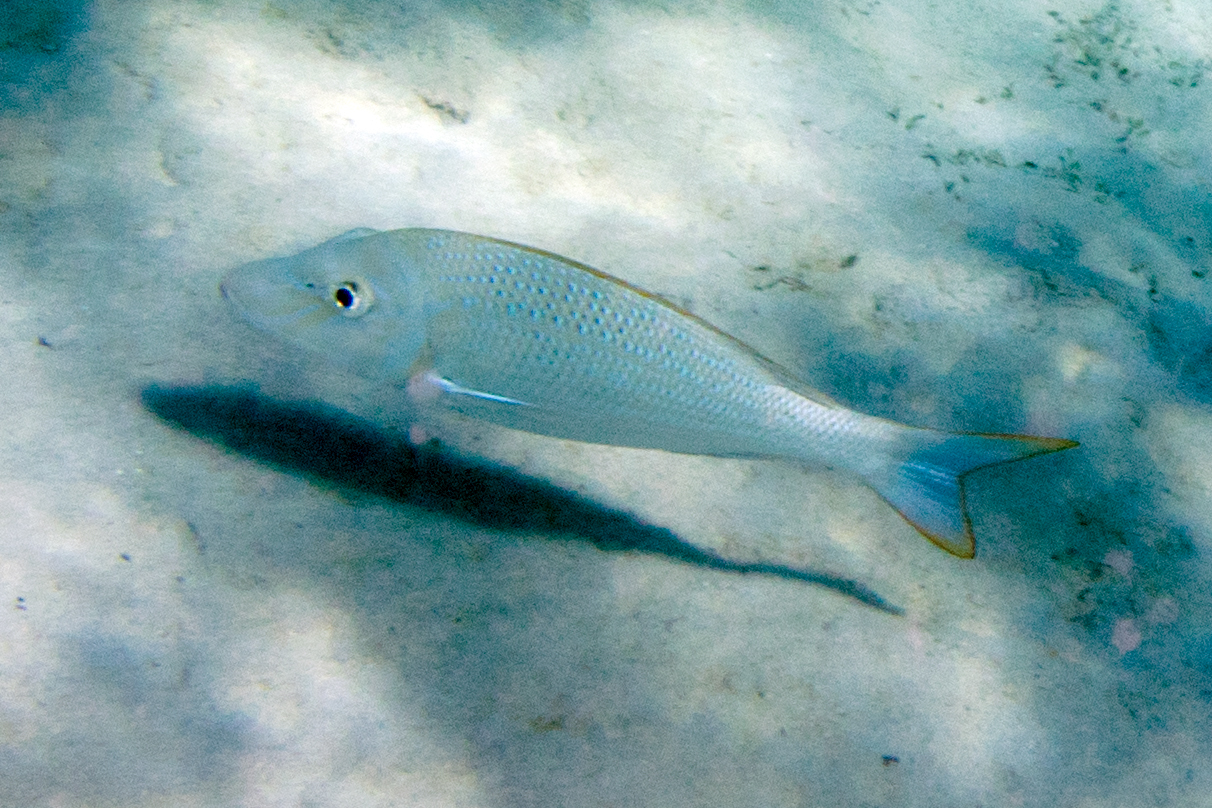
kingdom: Animalia
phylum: Chordata
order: Perciformes
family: Lethrinidae
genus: Lethrinus
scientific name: Lethrinus nebulosus
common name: Spangled emperor
